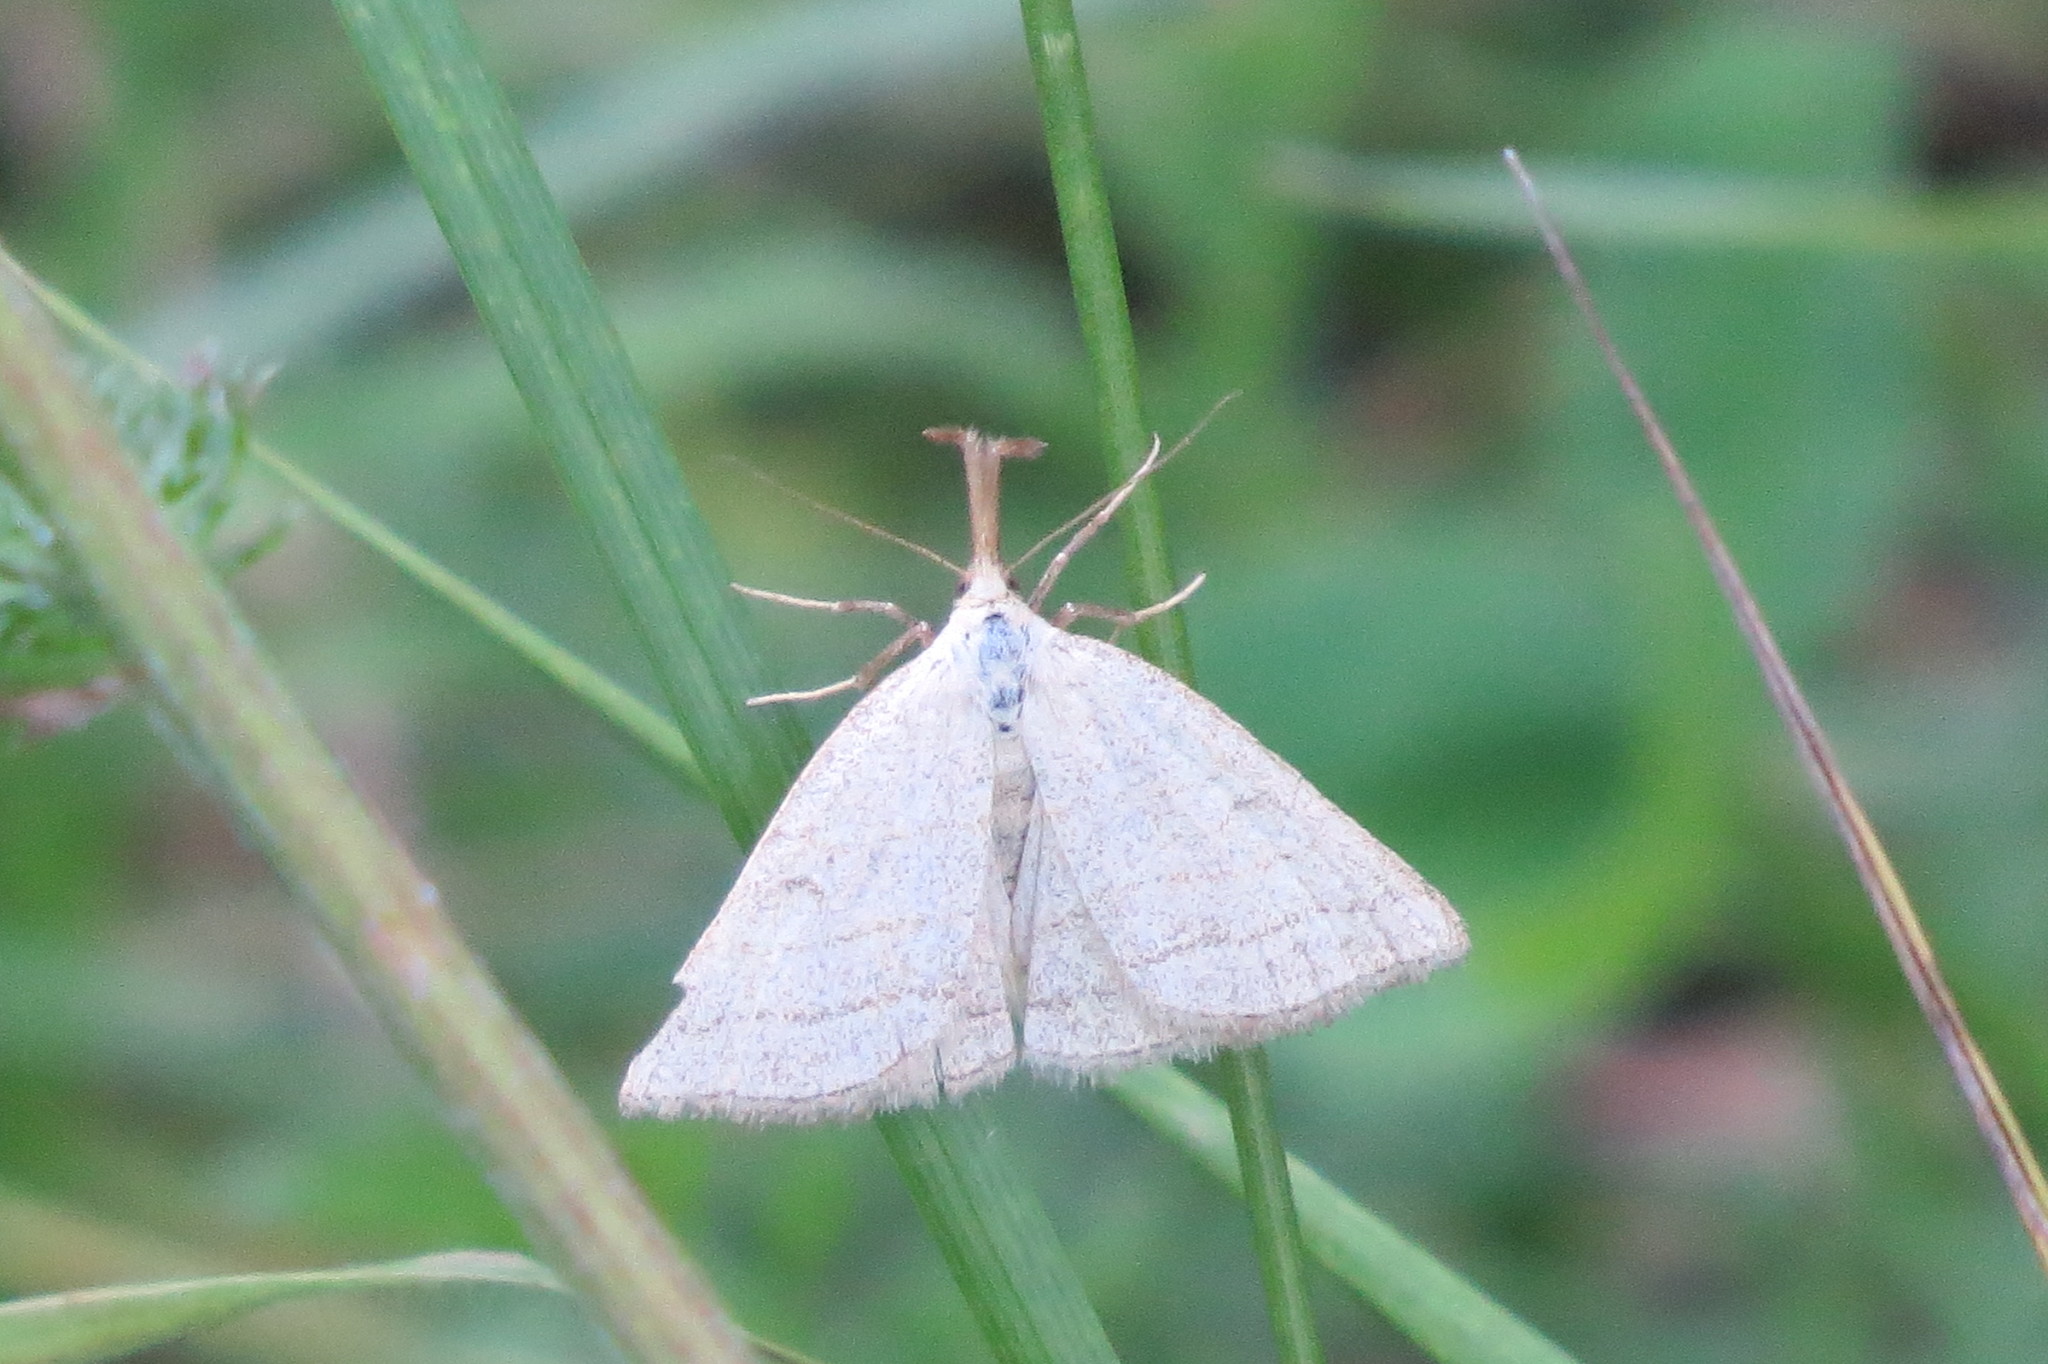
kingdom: Animalia
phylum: Arthropoda
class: Insecta
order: Lepidoptera
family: Erebidae
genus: Polypogon
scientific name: Polypogon tentacularia
